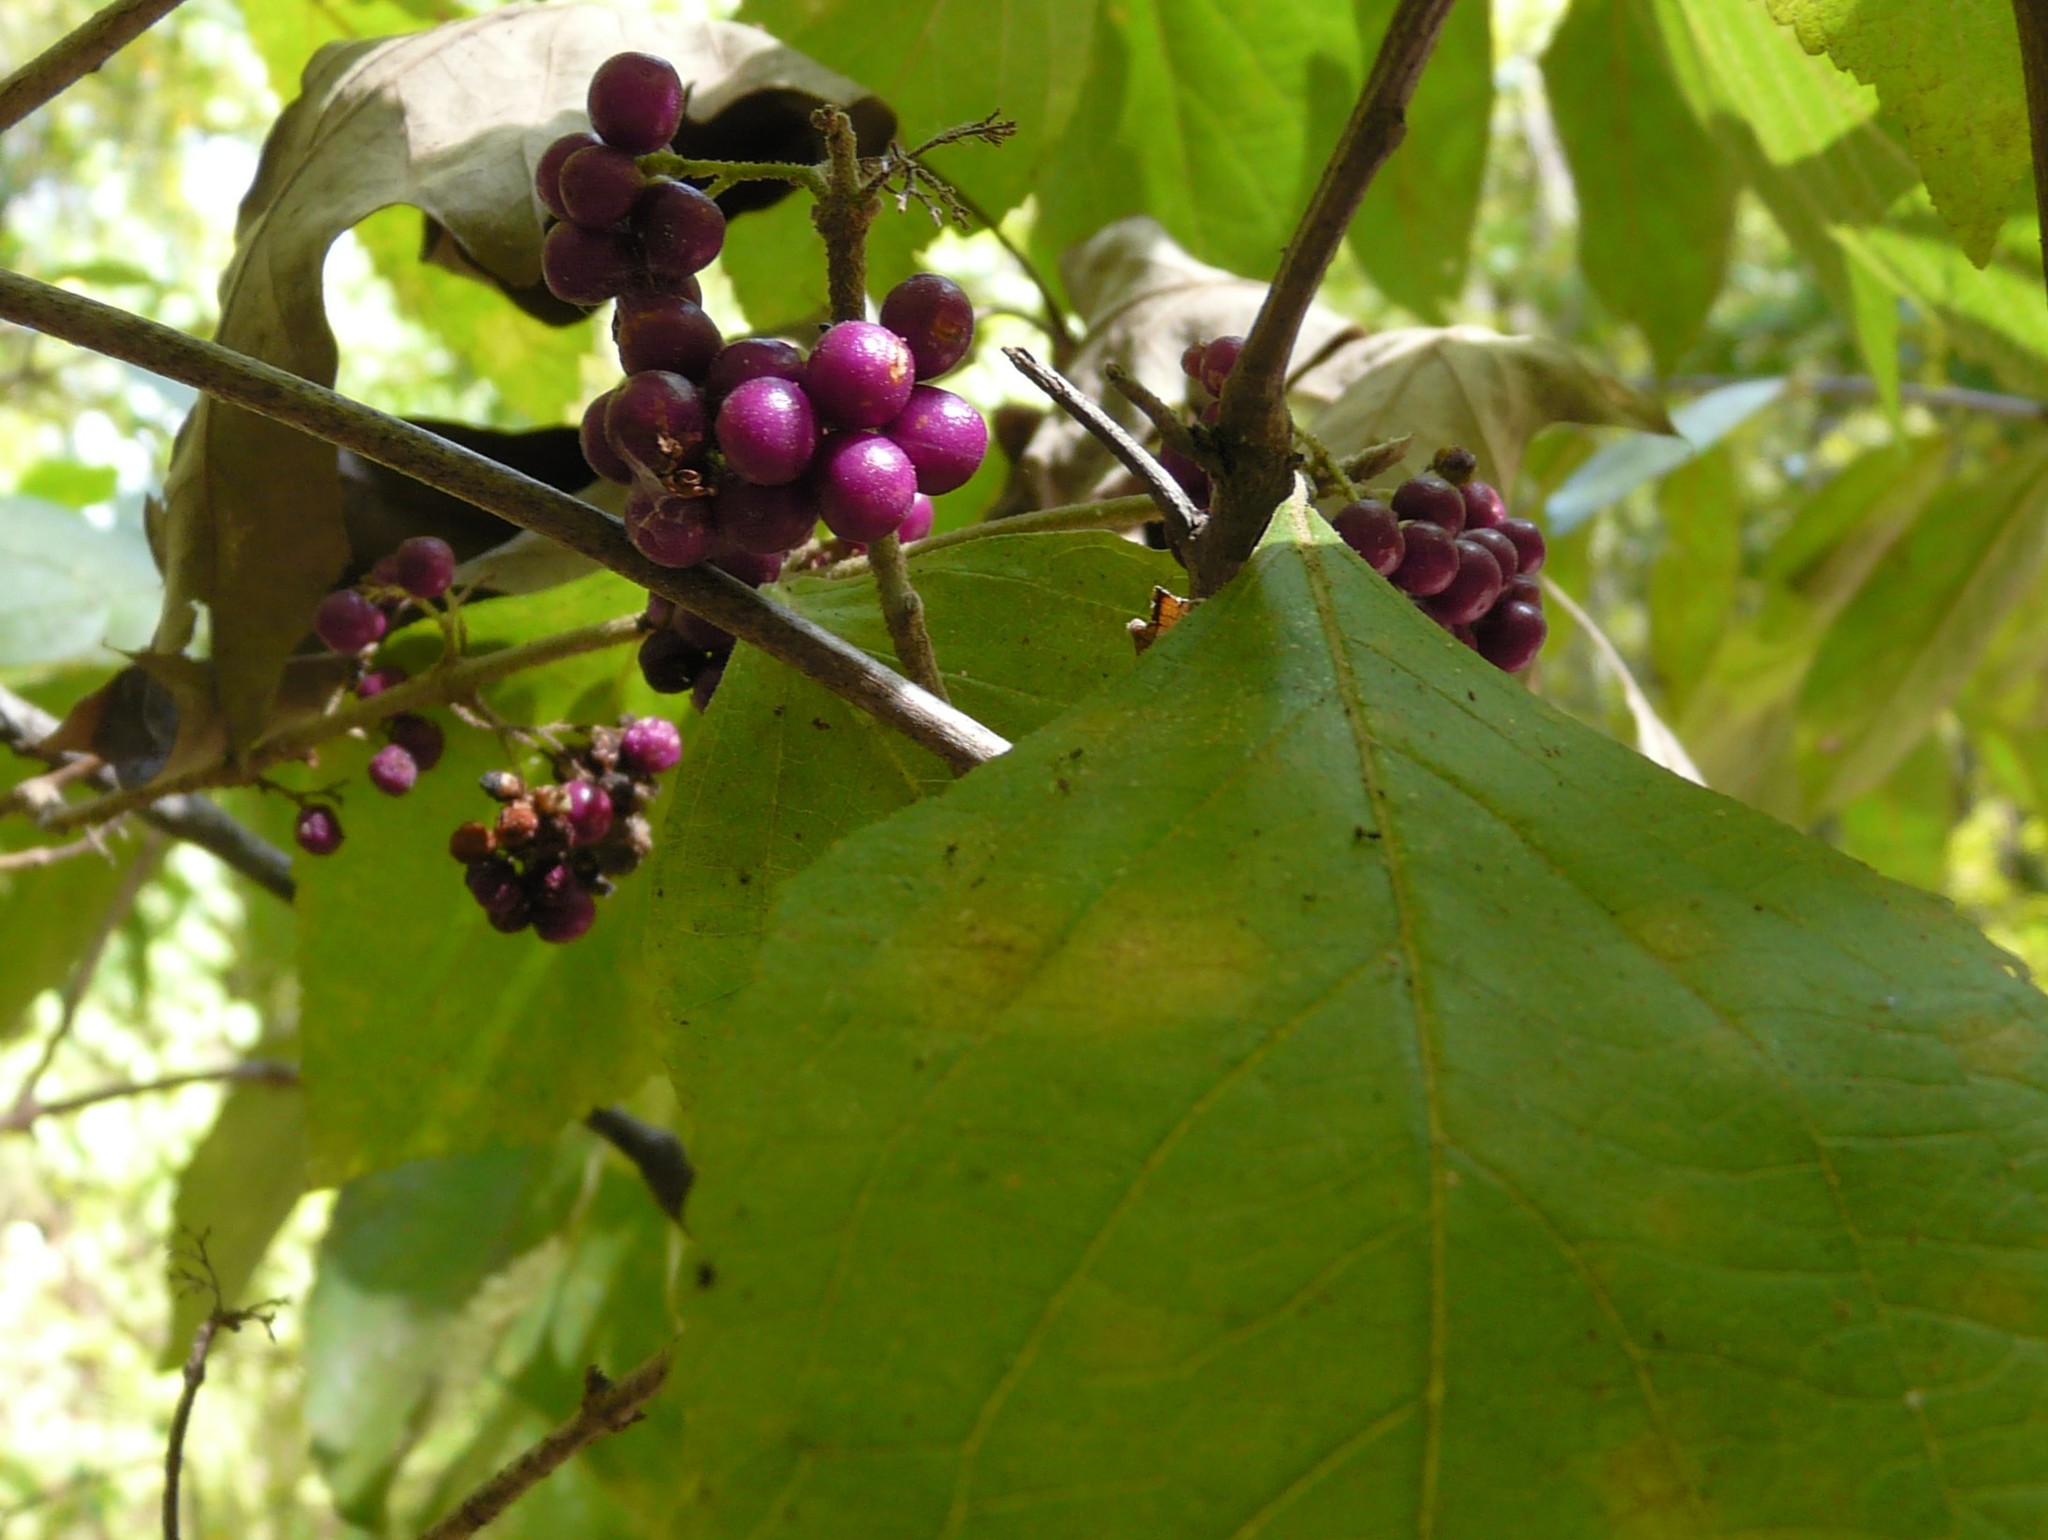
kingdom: Plantae
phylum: Tracheophyta
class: Magnoliopsida
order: Lamiales
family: Lamiaceae
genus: Callicarpa
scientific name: Callicarpa americana
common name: American beautyberry
